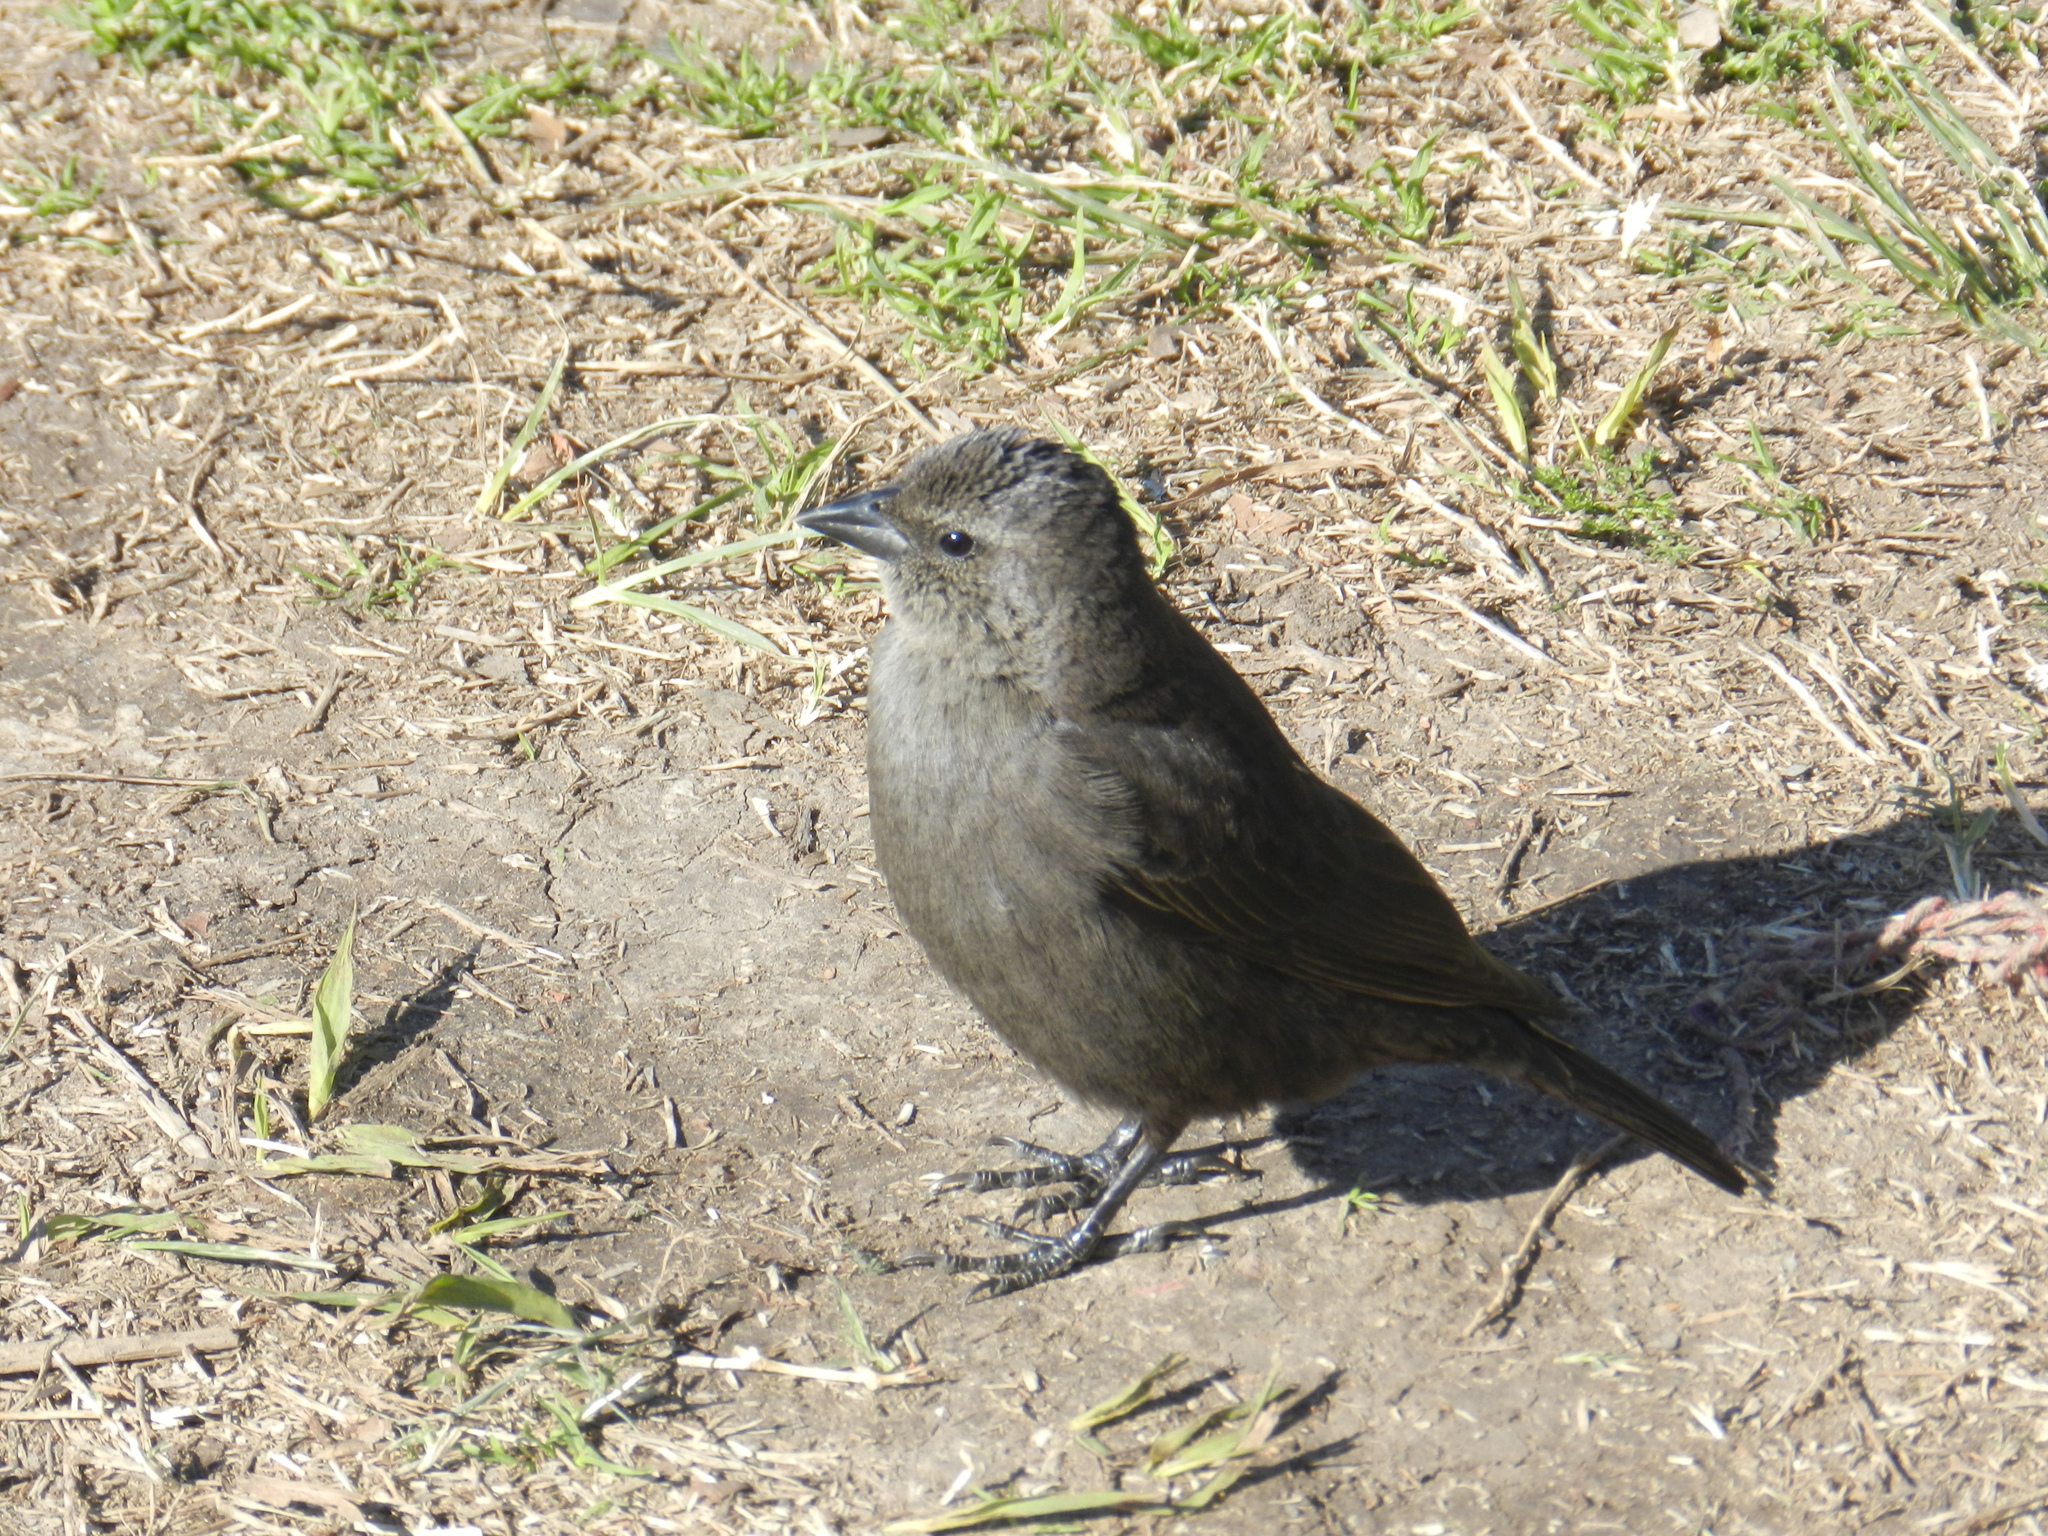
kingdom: Animalia
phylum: Chordata
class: Aves
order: Passeriformes
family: Icteridae
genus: Molothrus
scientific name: Molothrus bonariensis
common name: Shiny cowbird
